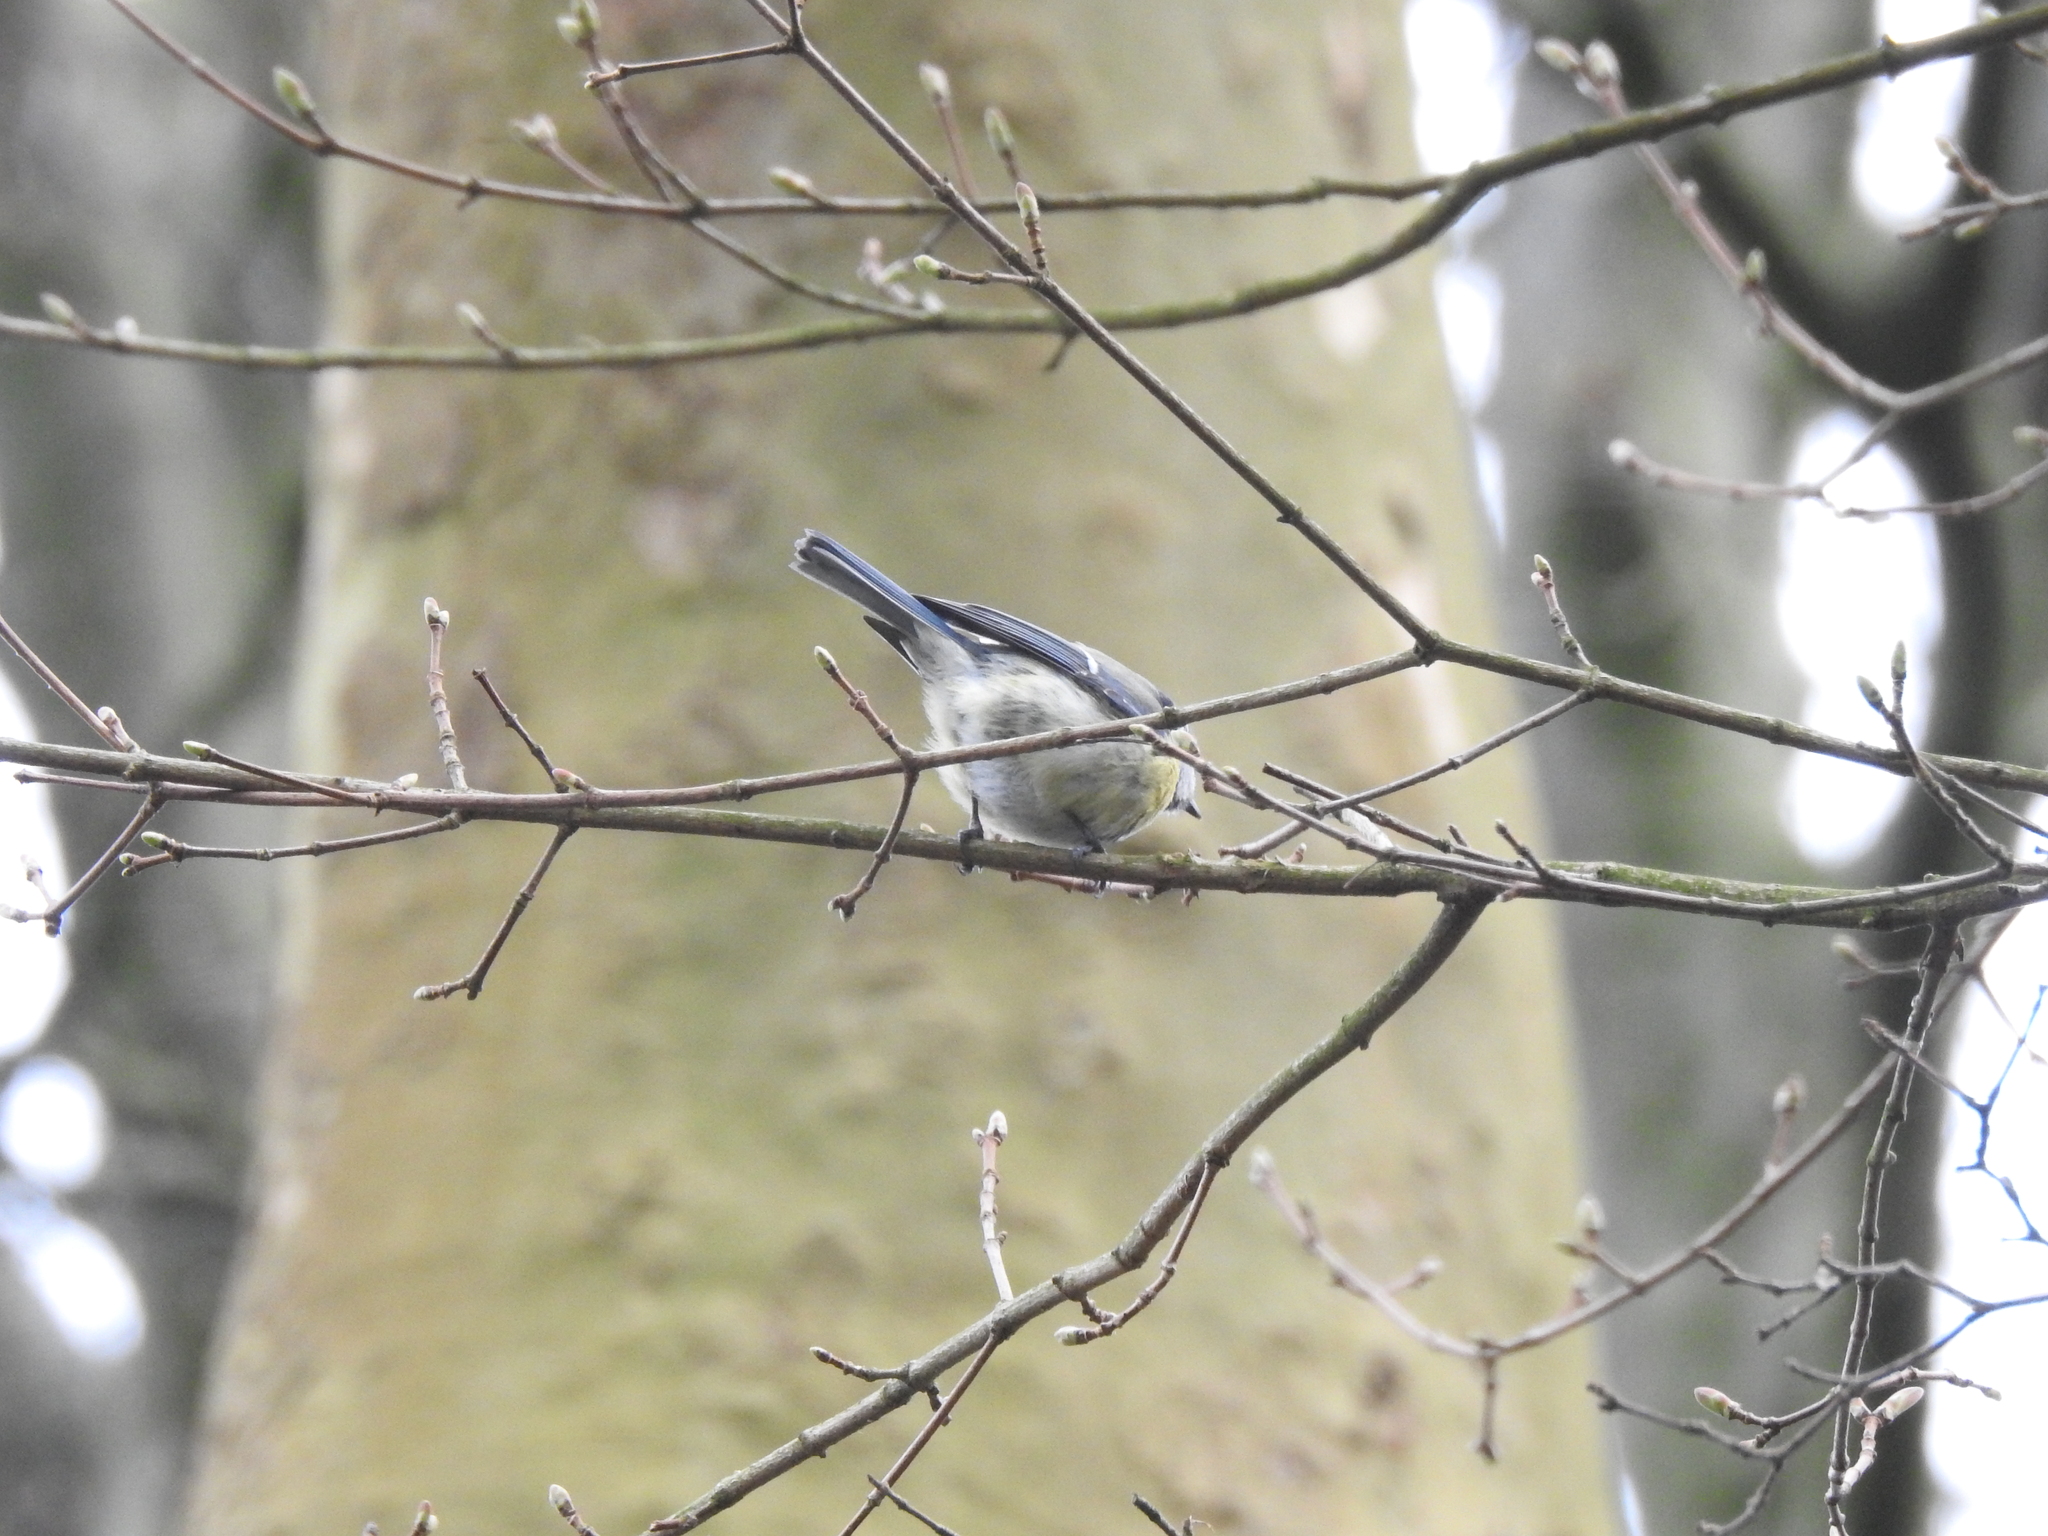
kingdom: Animalia
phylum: Chordata
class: Aves
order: Passeriformes
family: Paridae
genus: Cyanistes
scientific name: Cyanistes caeruleus
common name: Eurasian blue tit
